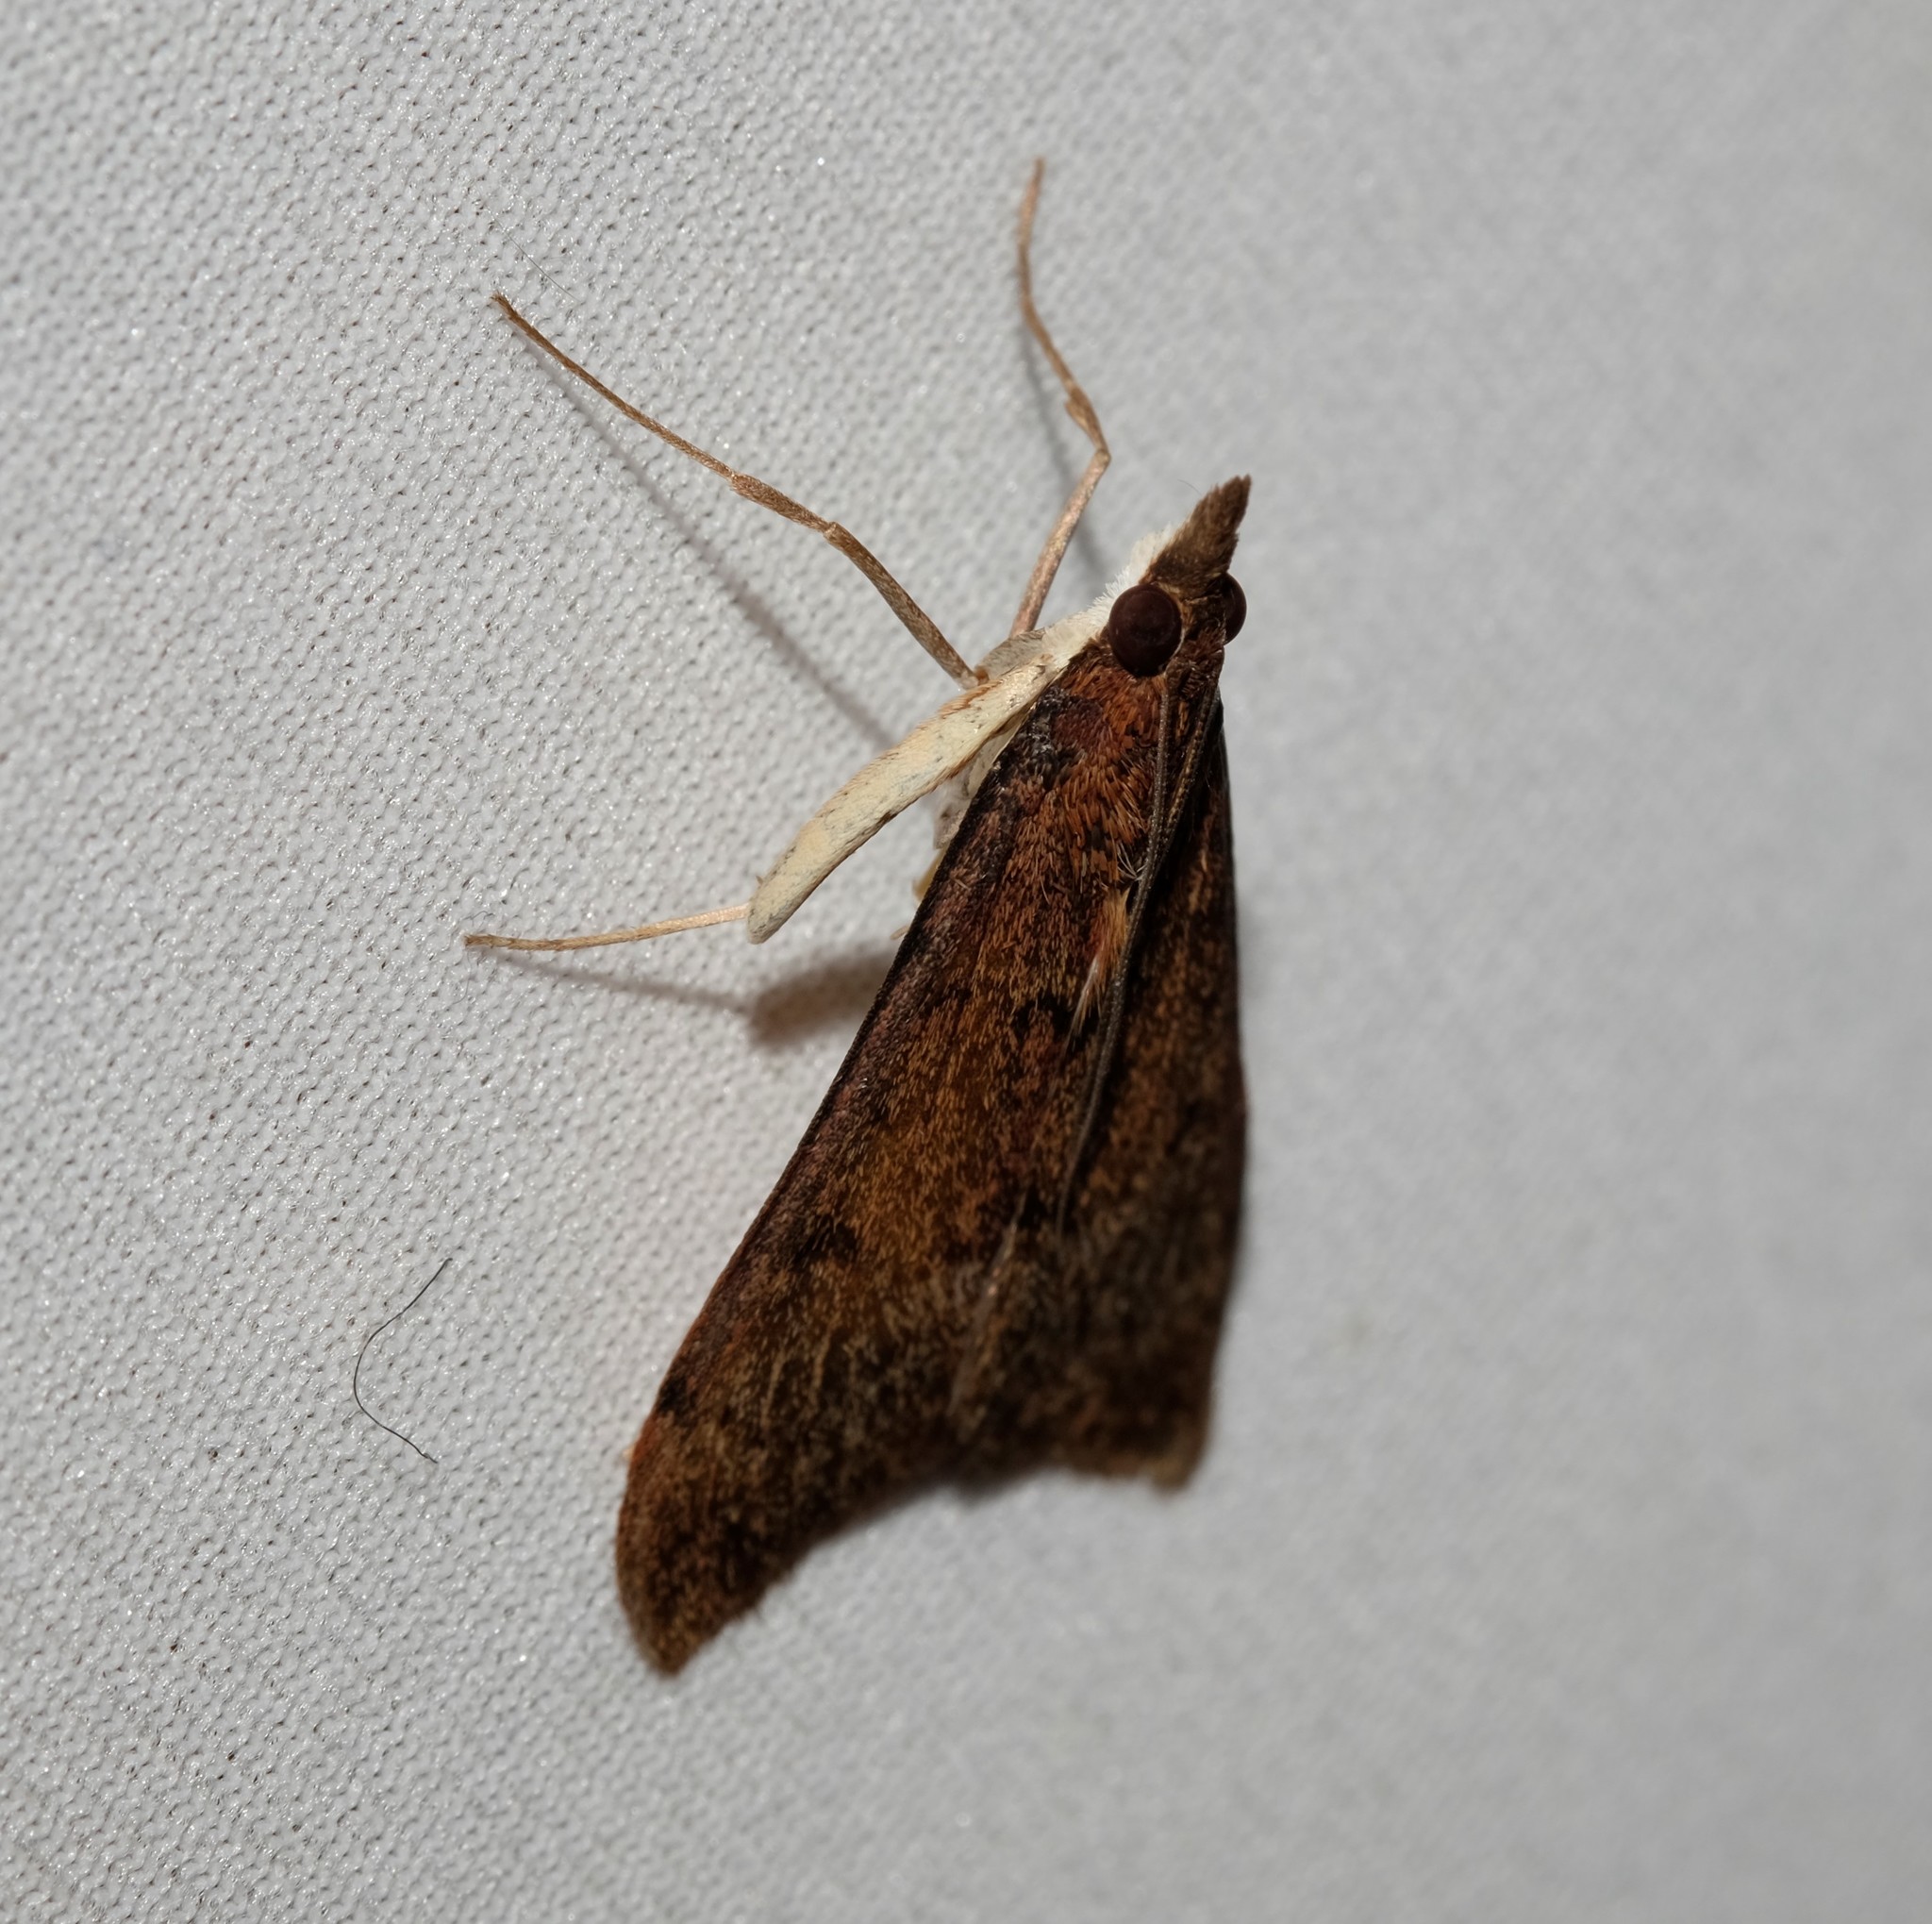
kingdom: Animalia
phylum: Arthropoda
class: Insecta
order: Lepidoptera
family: Crambidae
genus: Uresiphita
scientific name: Uresiphita ornithopteralis
